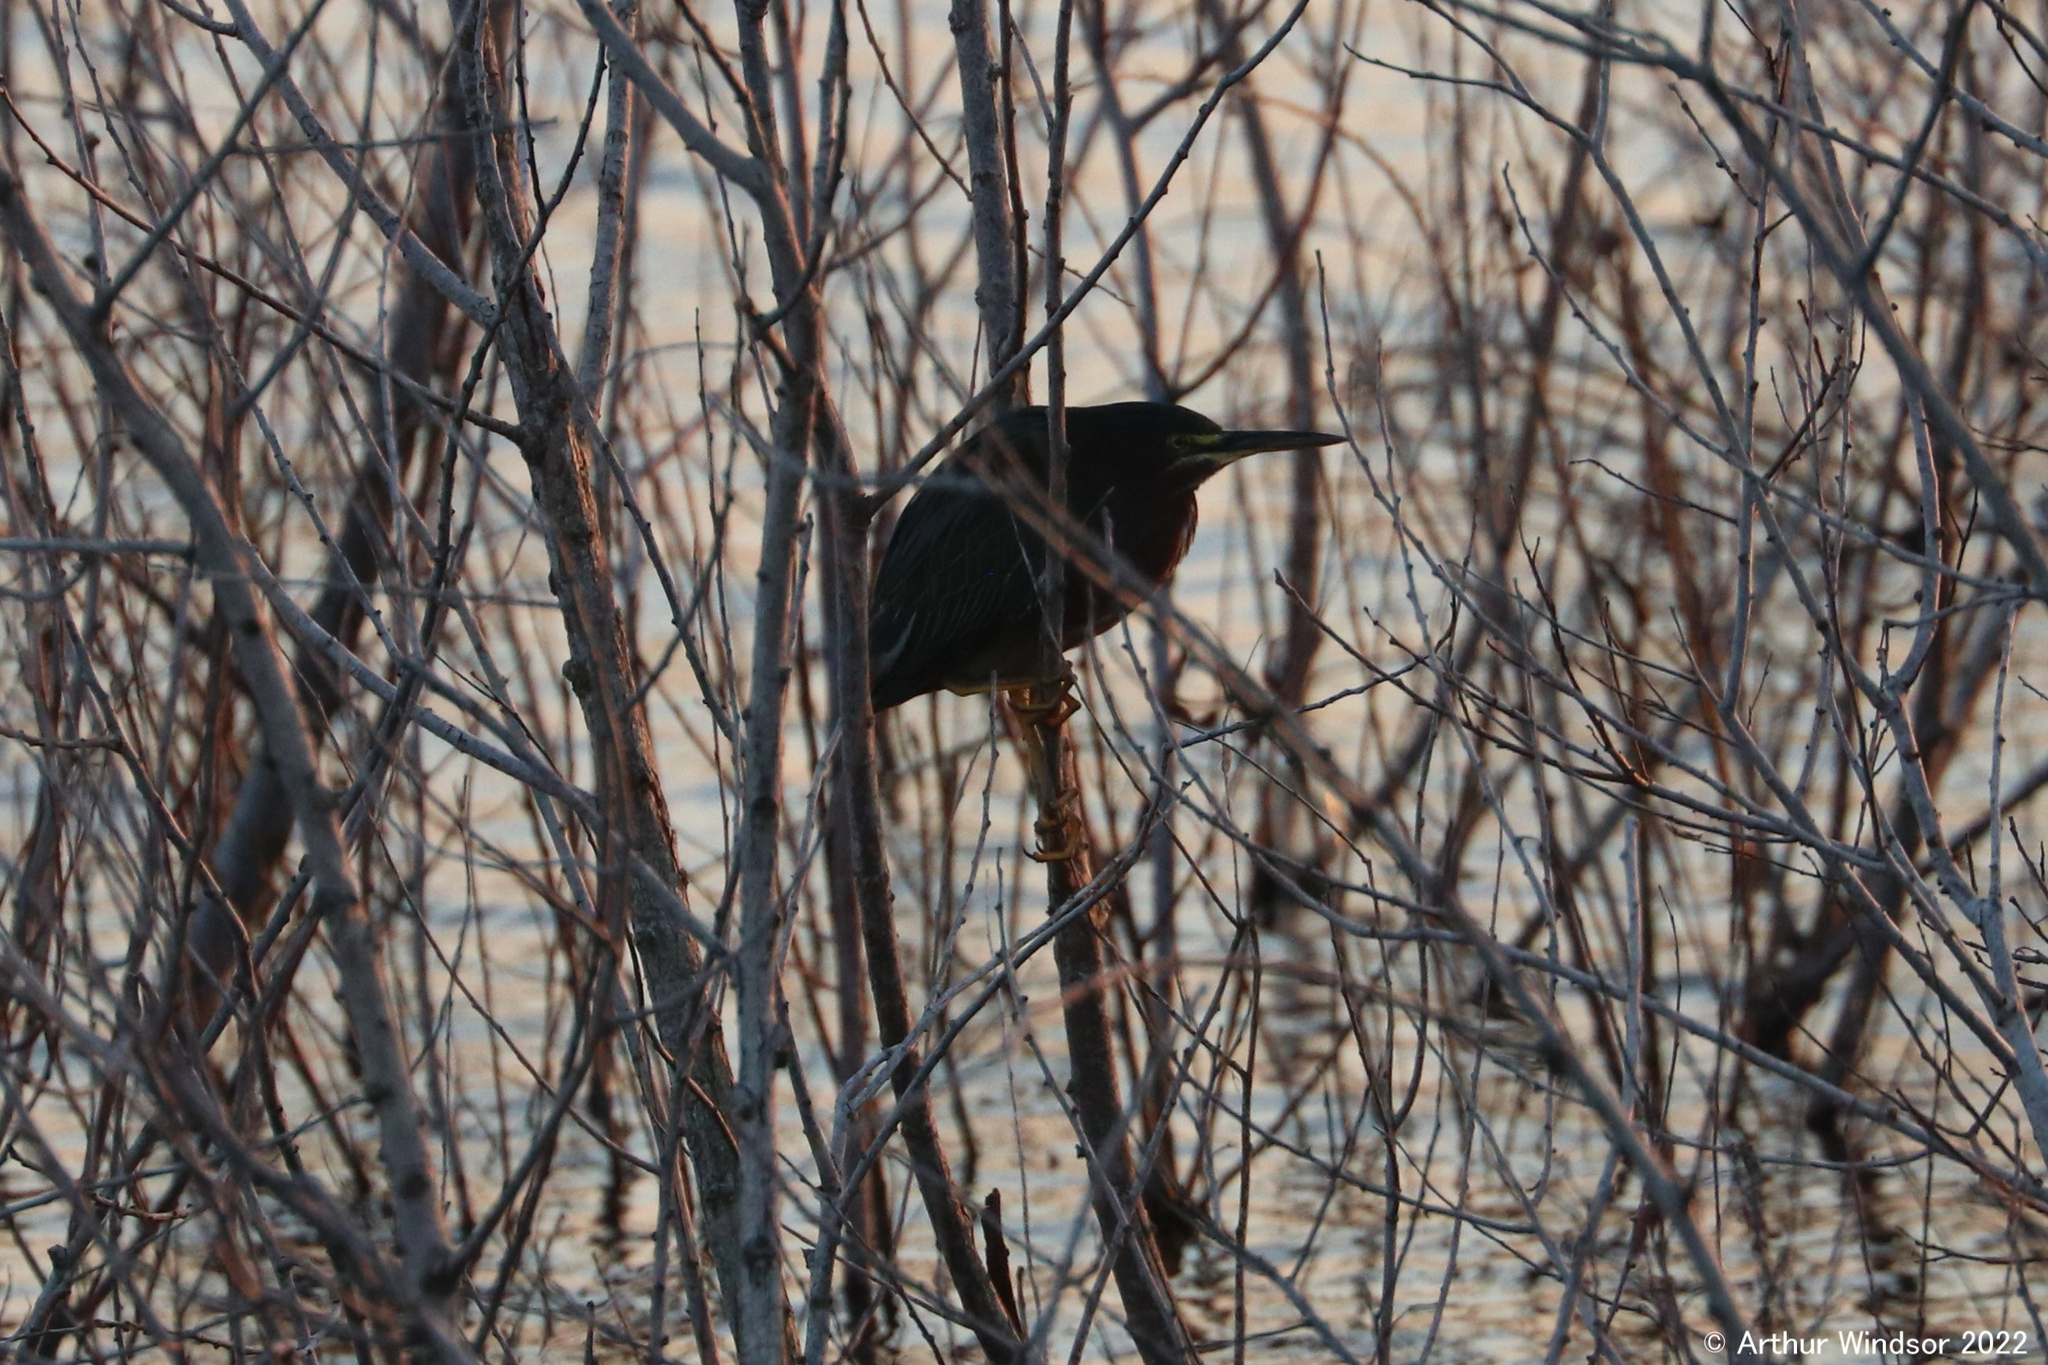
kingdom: Animalia
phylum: Chordata
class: Aves
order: Pelecaniformes
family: Ardeidae
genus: Butorides
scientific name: Butorides virescens
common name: Green heron
